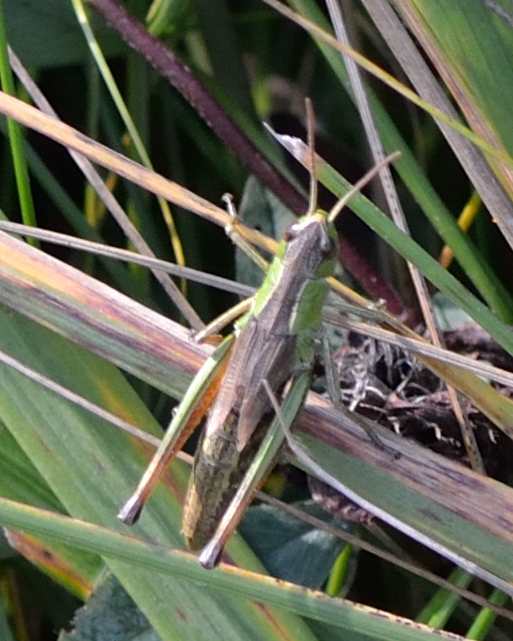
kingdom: Animalia
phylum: Arthropoda
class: Insecta
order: Orthoptera
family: Acrididae
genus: Pseudochorthippus
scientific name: Pseudochorthippus parallelus
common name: Meadow grasshopper
